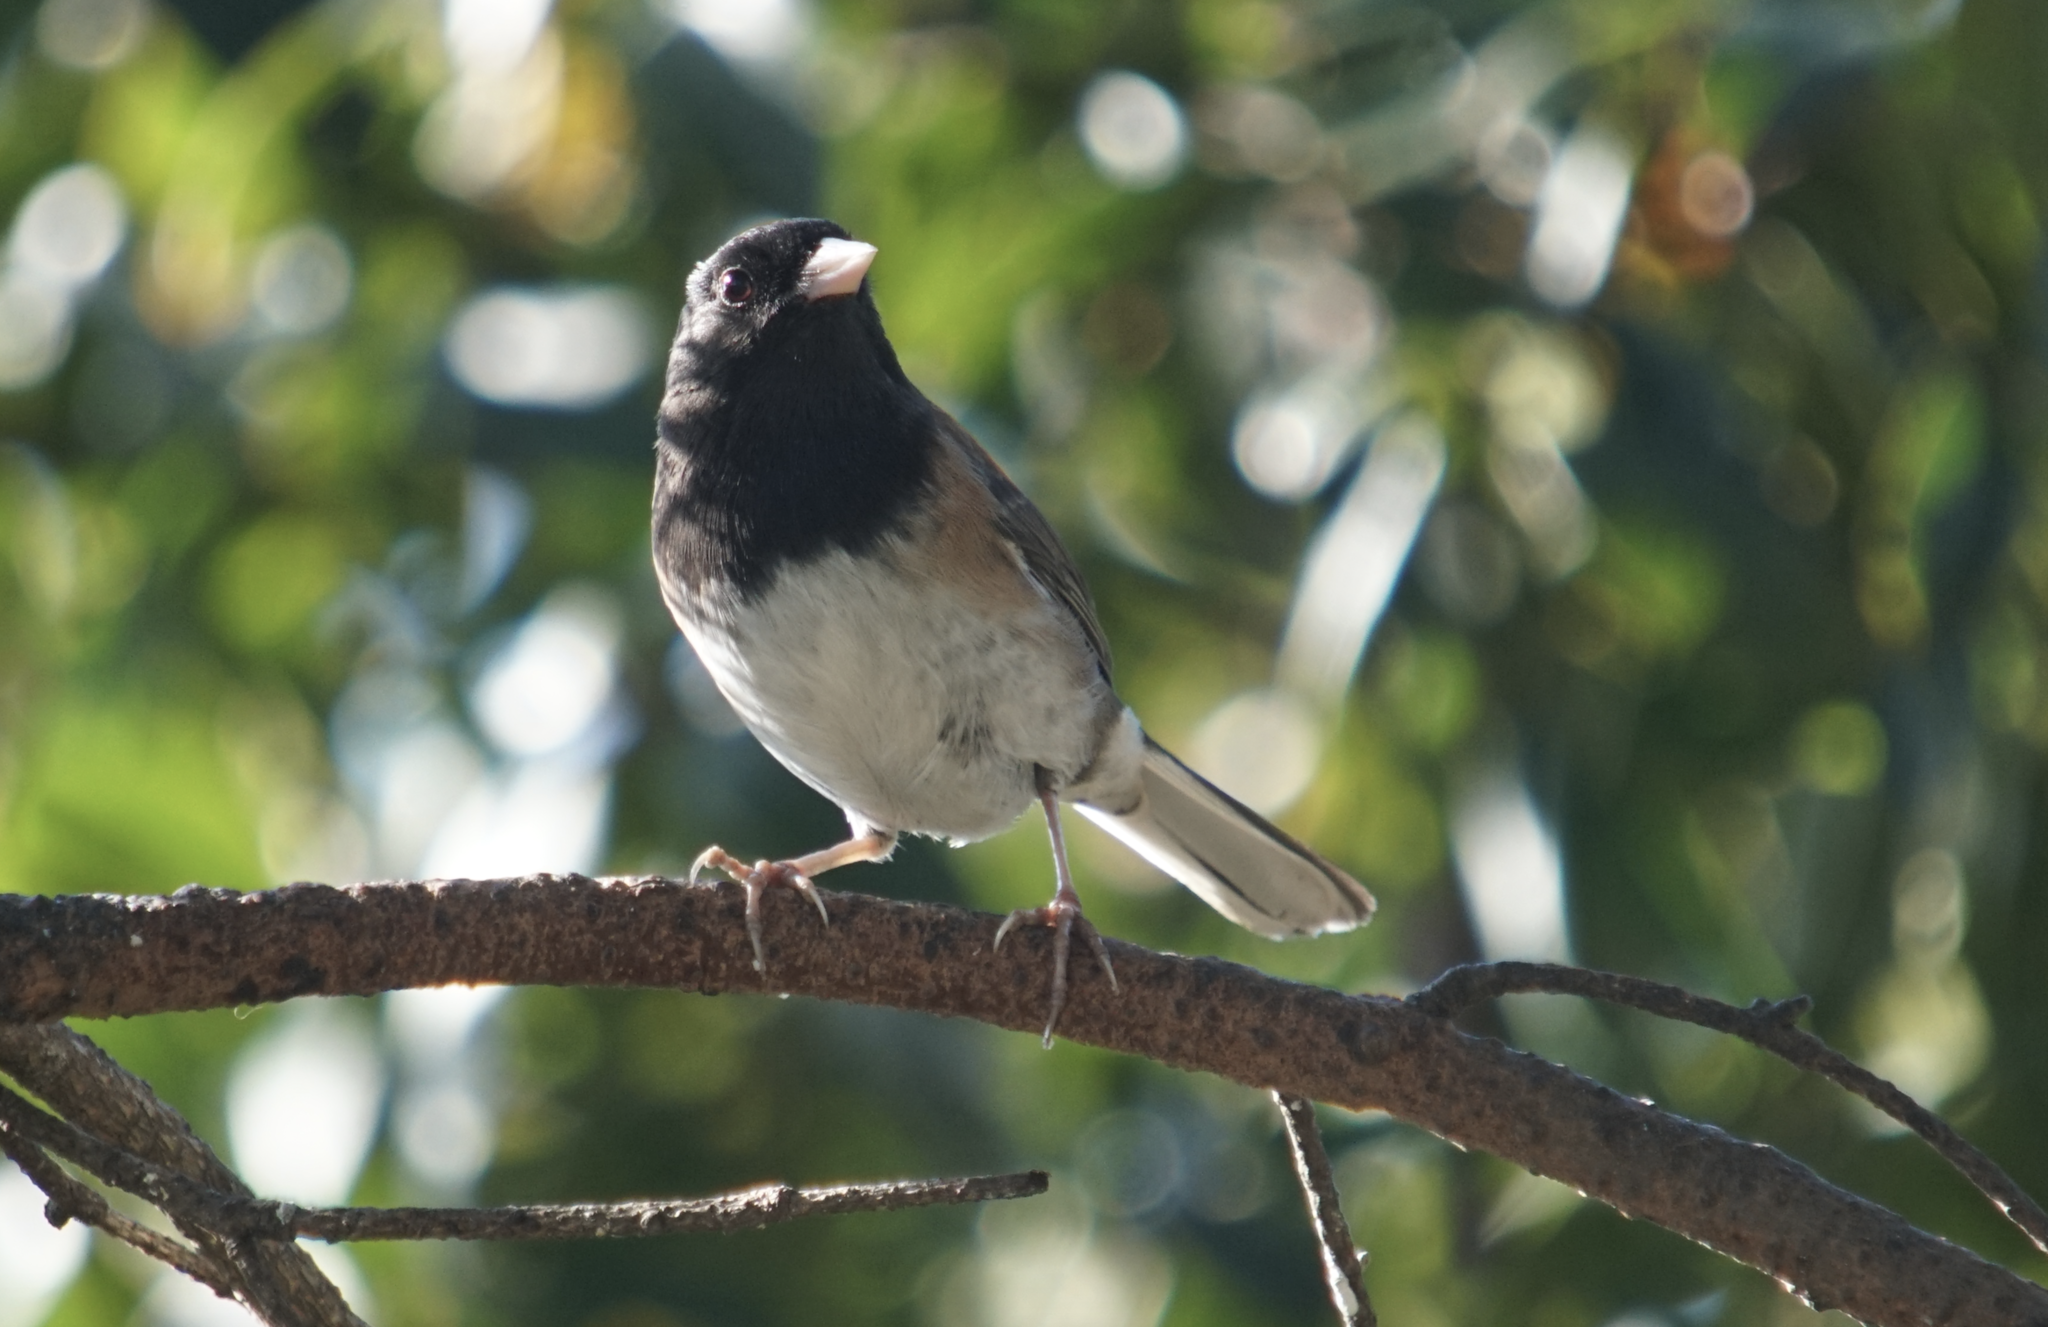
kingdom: Animalia
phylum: Chordata
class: Aves
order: Passeriformes
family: Passerellidae
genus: Junco
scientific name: Junco hyemalis
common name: Dark-eyed junco
